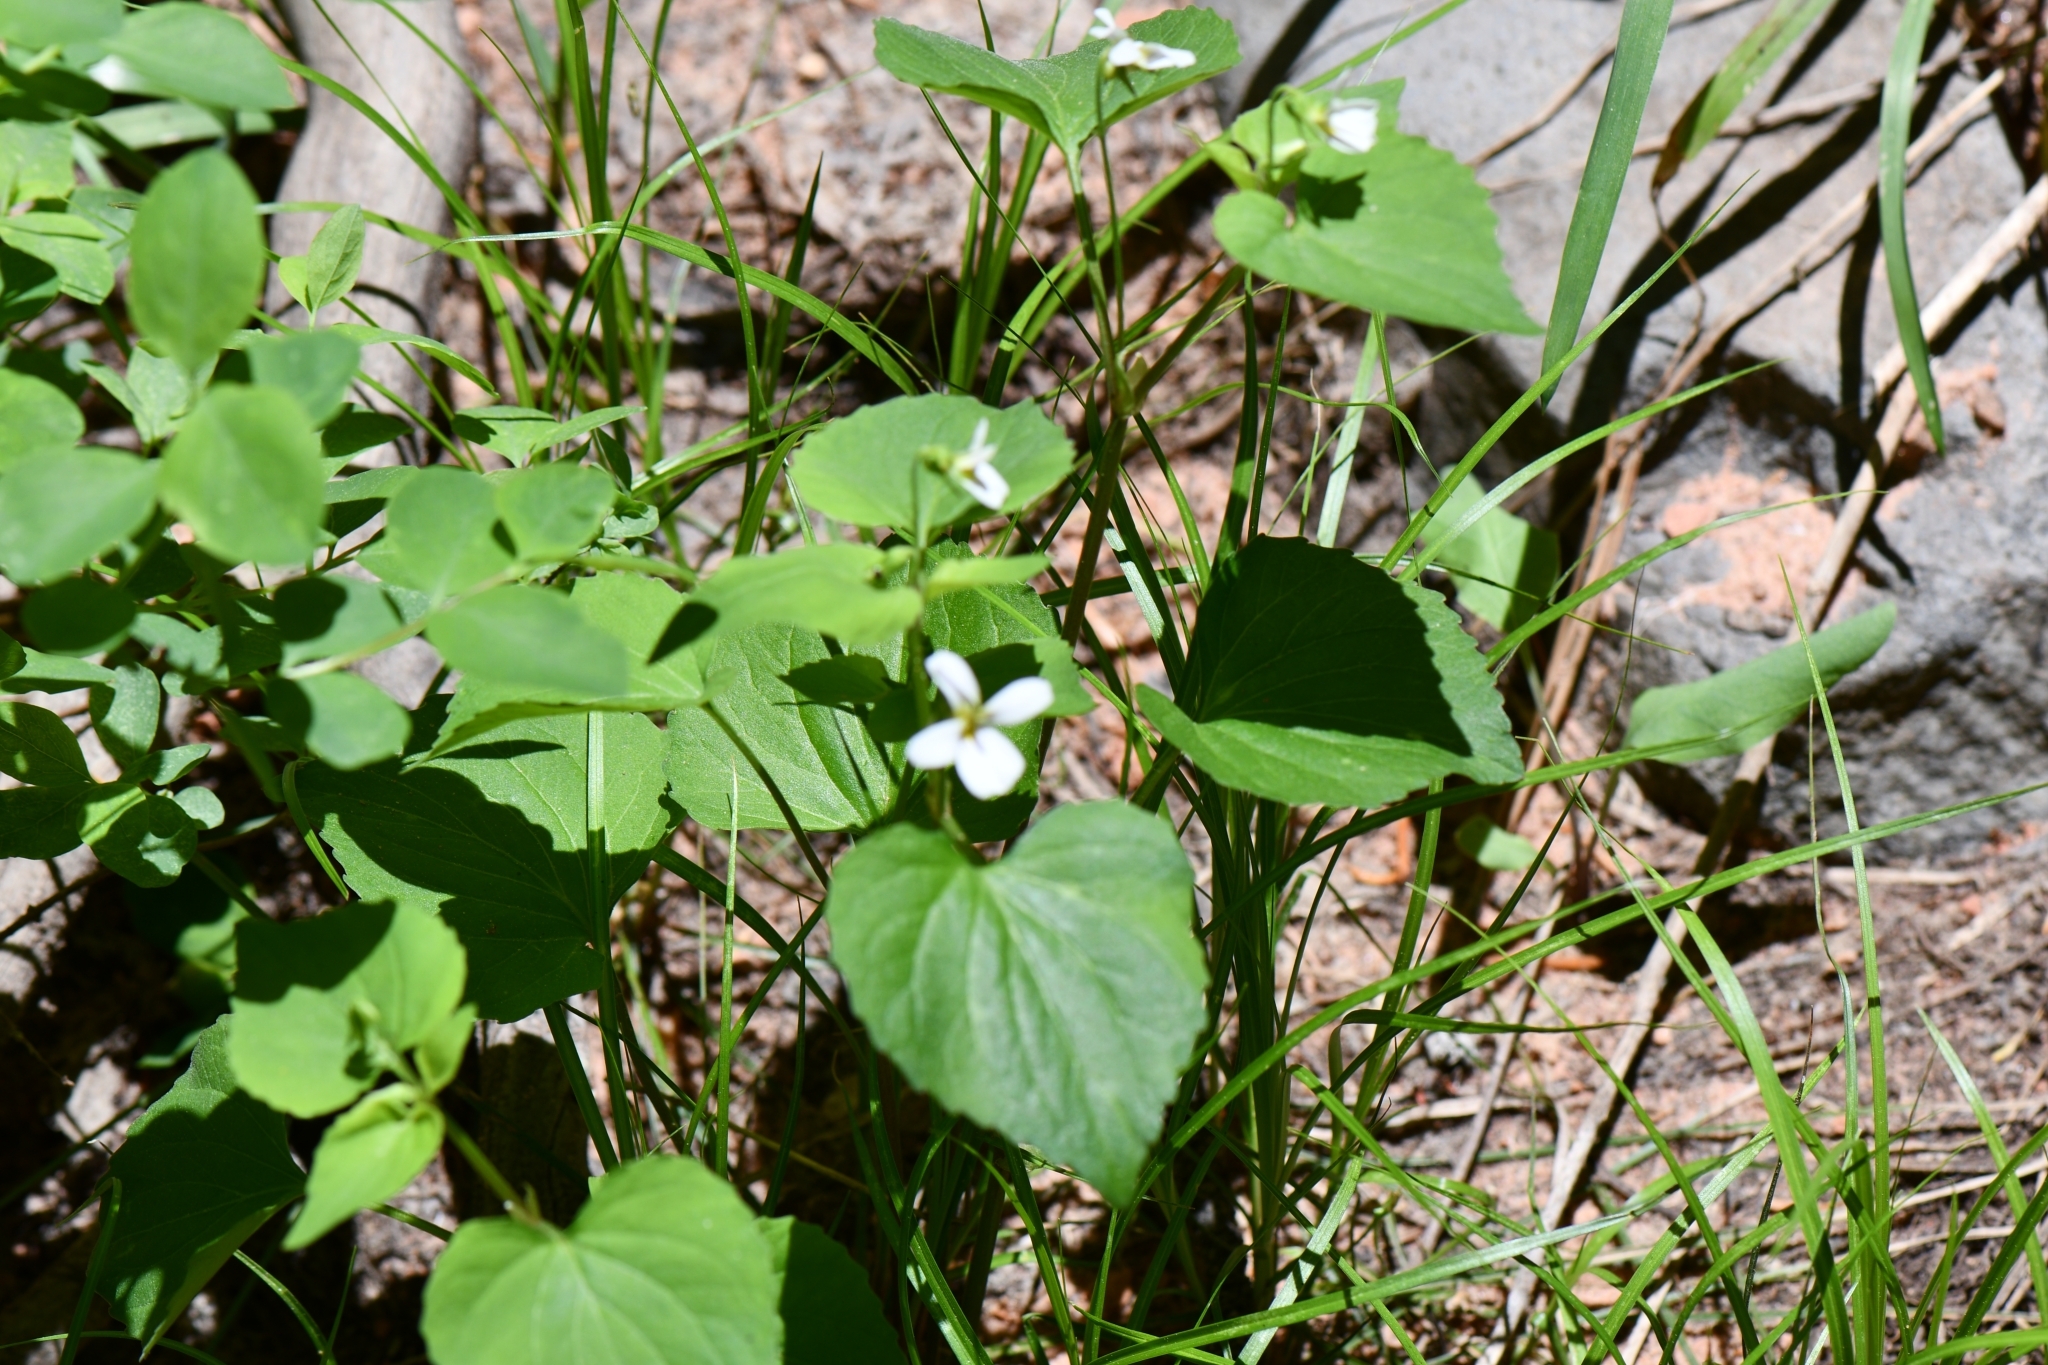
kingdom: Plantae
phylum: Tracheophyta
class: Magnoliopsida
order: Malpighiales
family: Violaceae
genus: Viola
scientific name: Viola canadensis
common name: Canada violet
